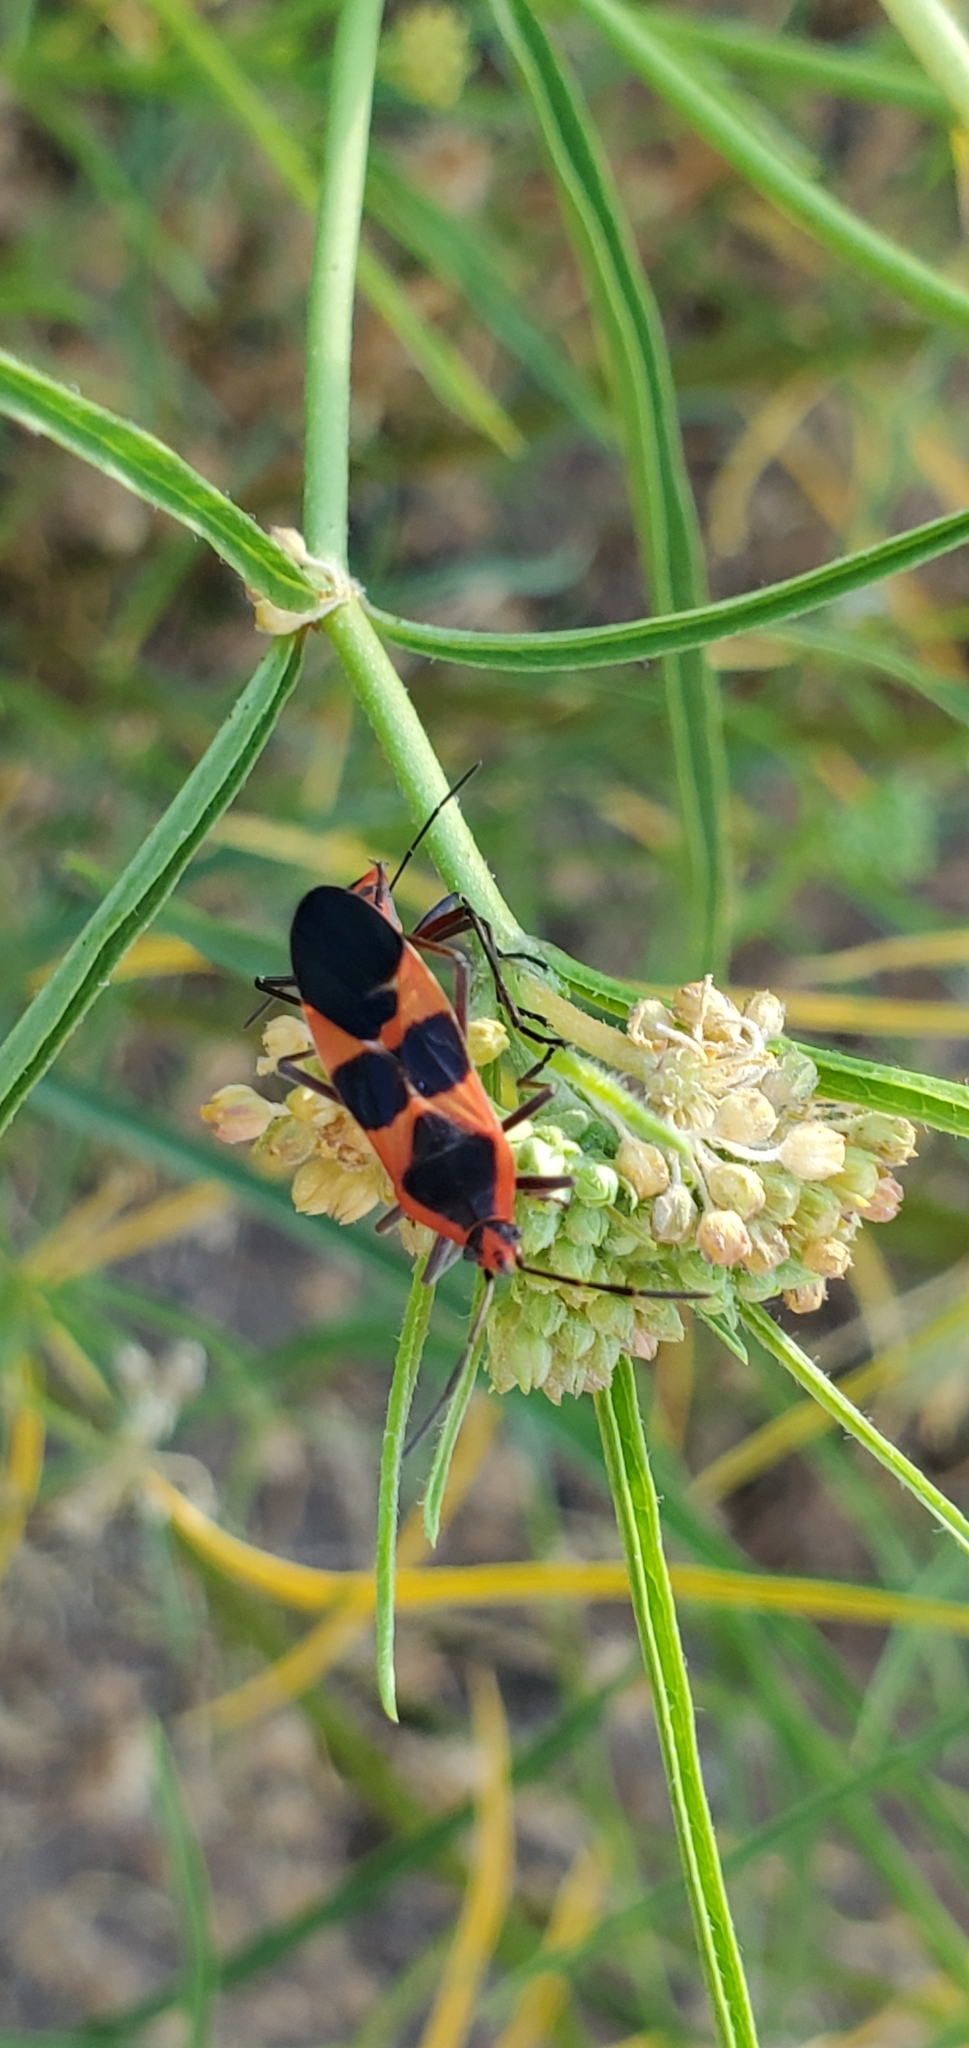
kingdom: Animalia
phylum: Arthropoda
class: Insecta
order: Hemiptera
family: Lygaeidae
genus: Oncopeltus
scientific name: Oncopeltus fasciatus
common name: Large milkweed bug
